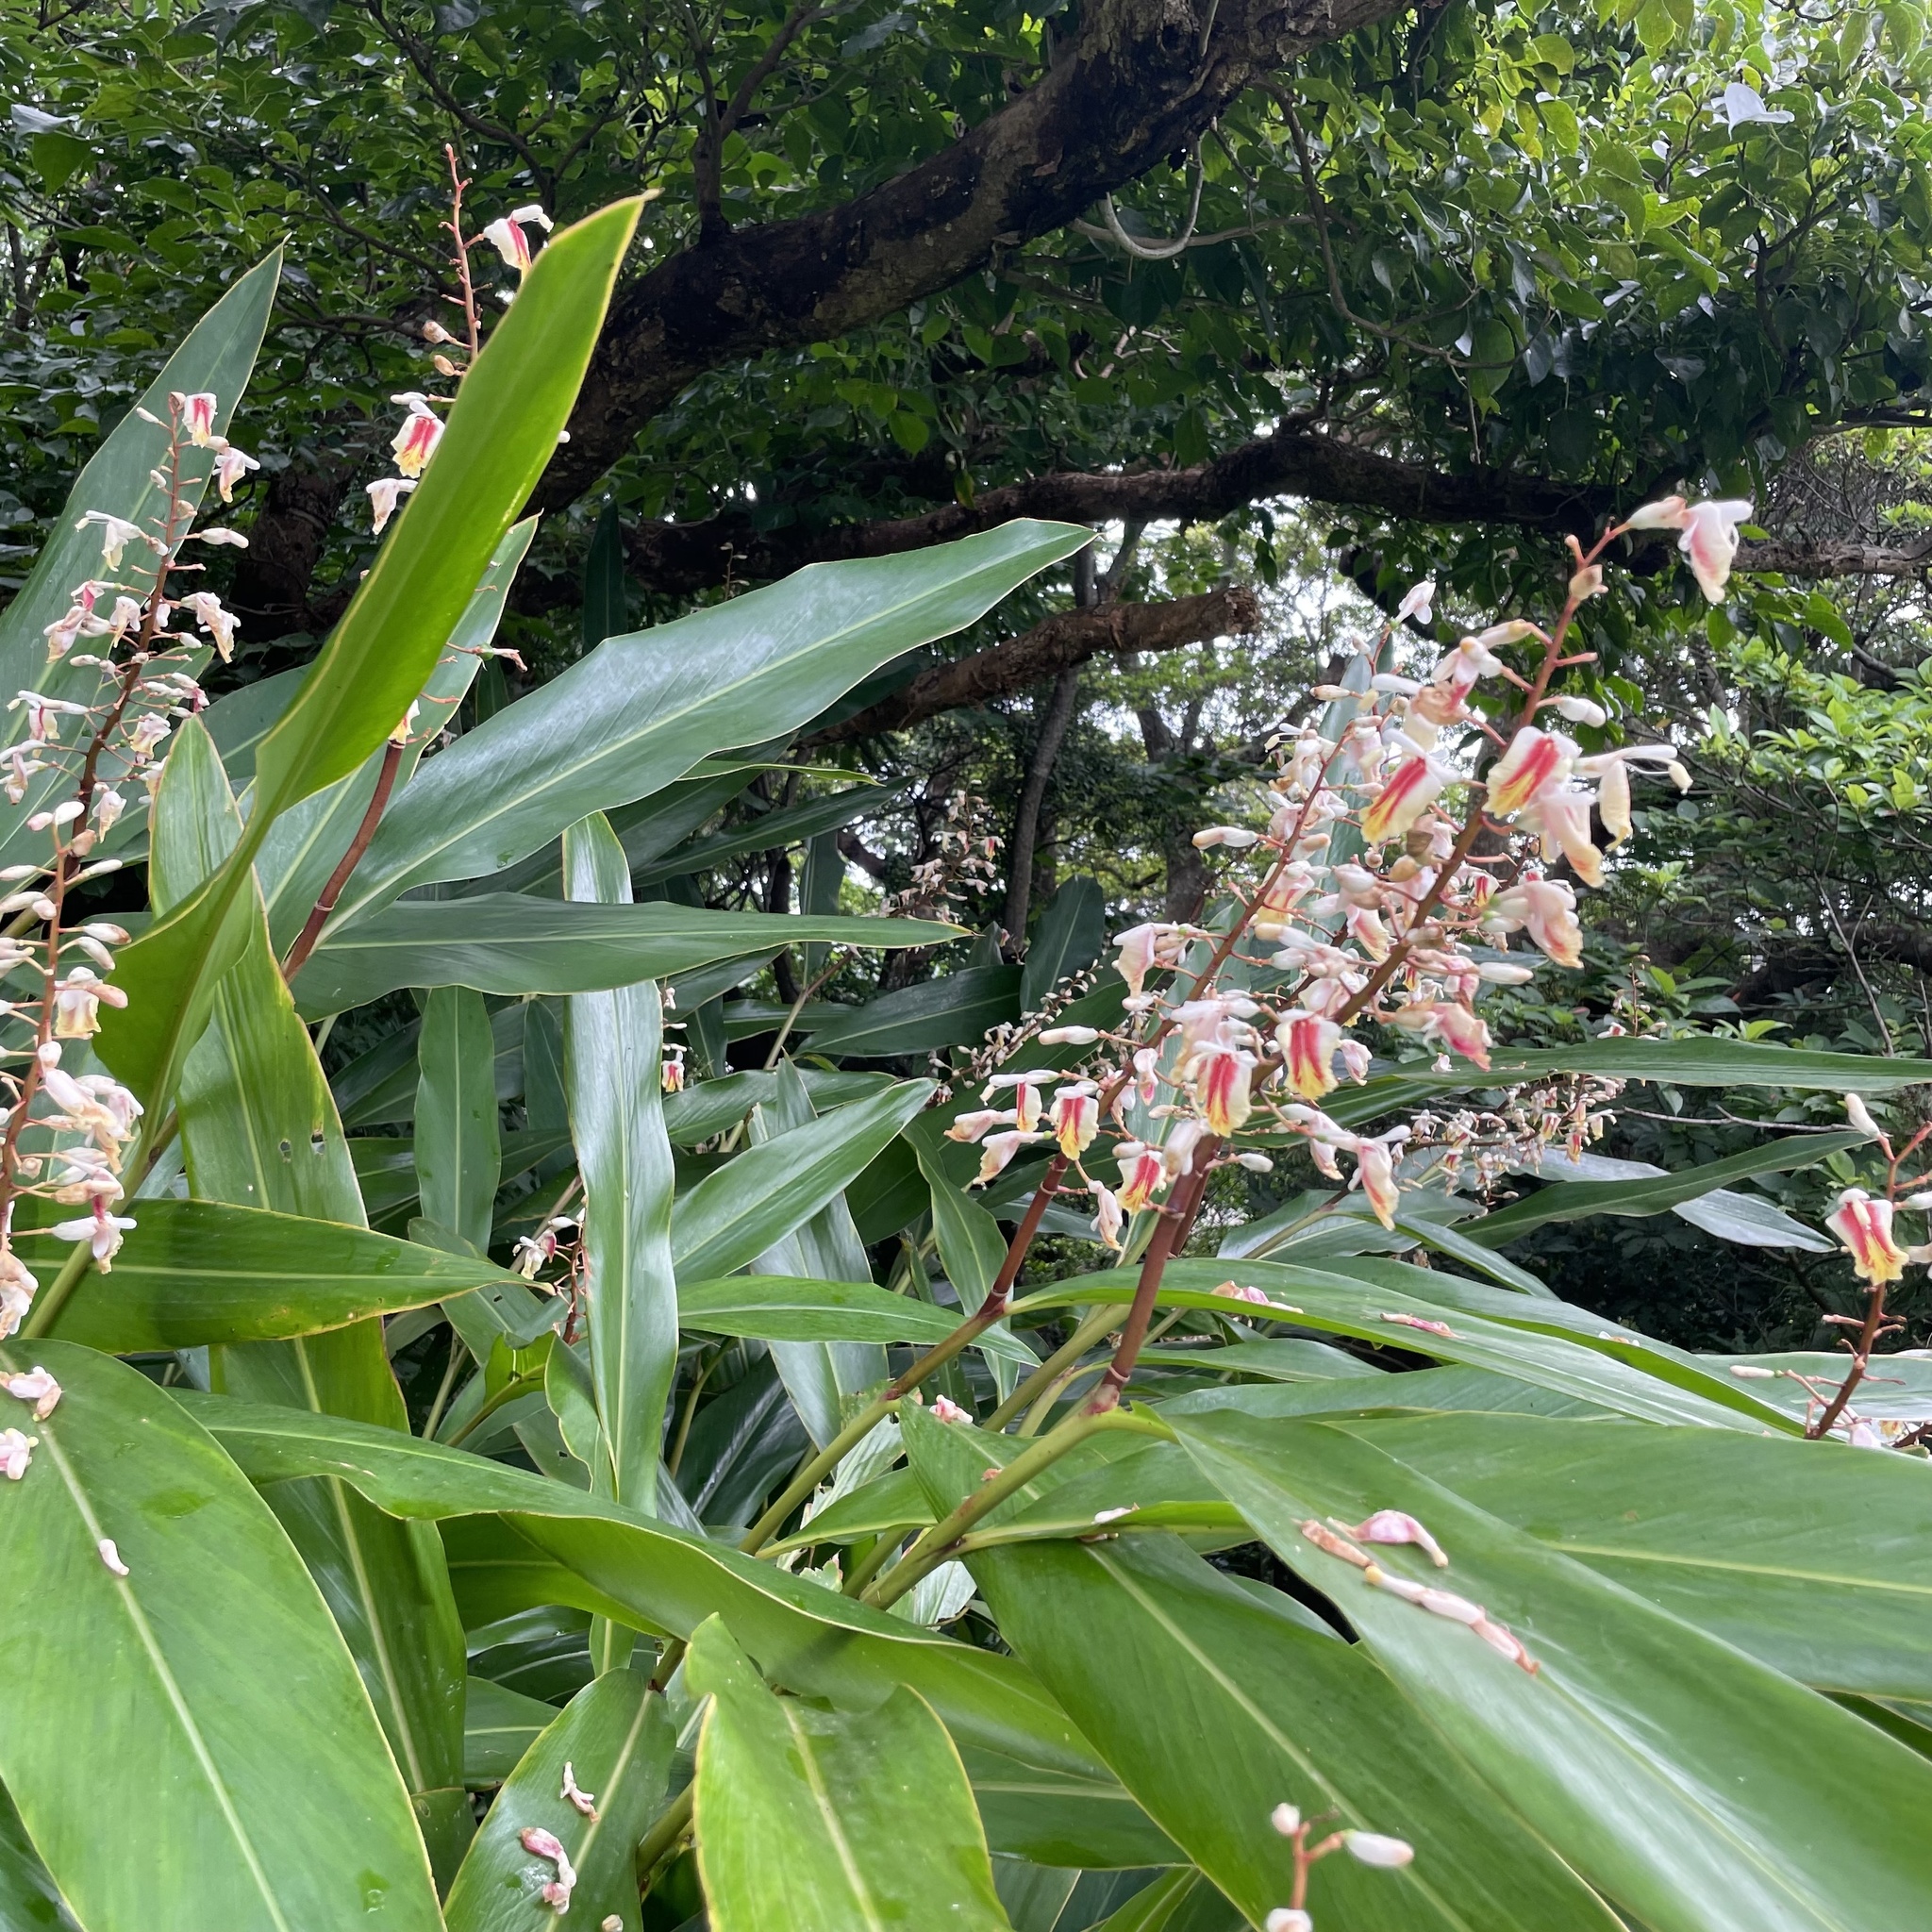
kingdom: Plantae
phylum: Tracheophyta
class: Liliopsida
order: Zingiberales
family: Zingiberaceae
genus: Alpinia
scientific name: Alpinia formosana
